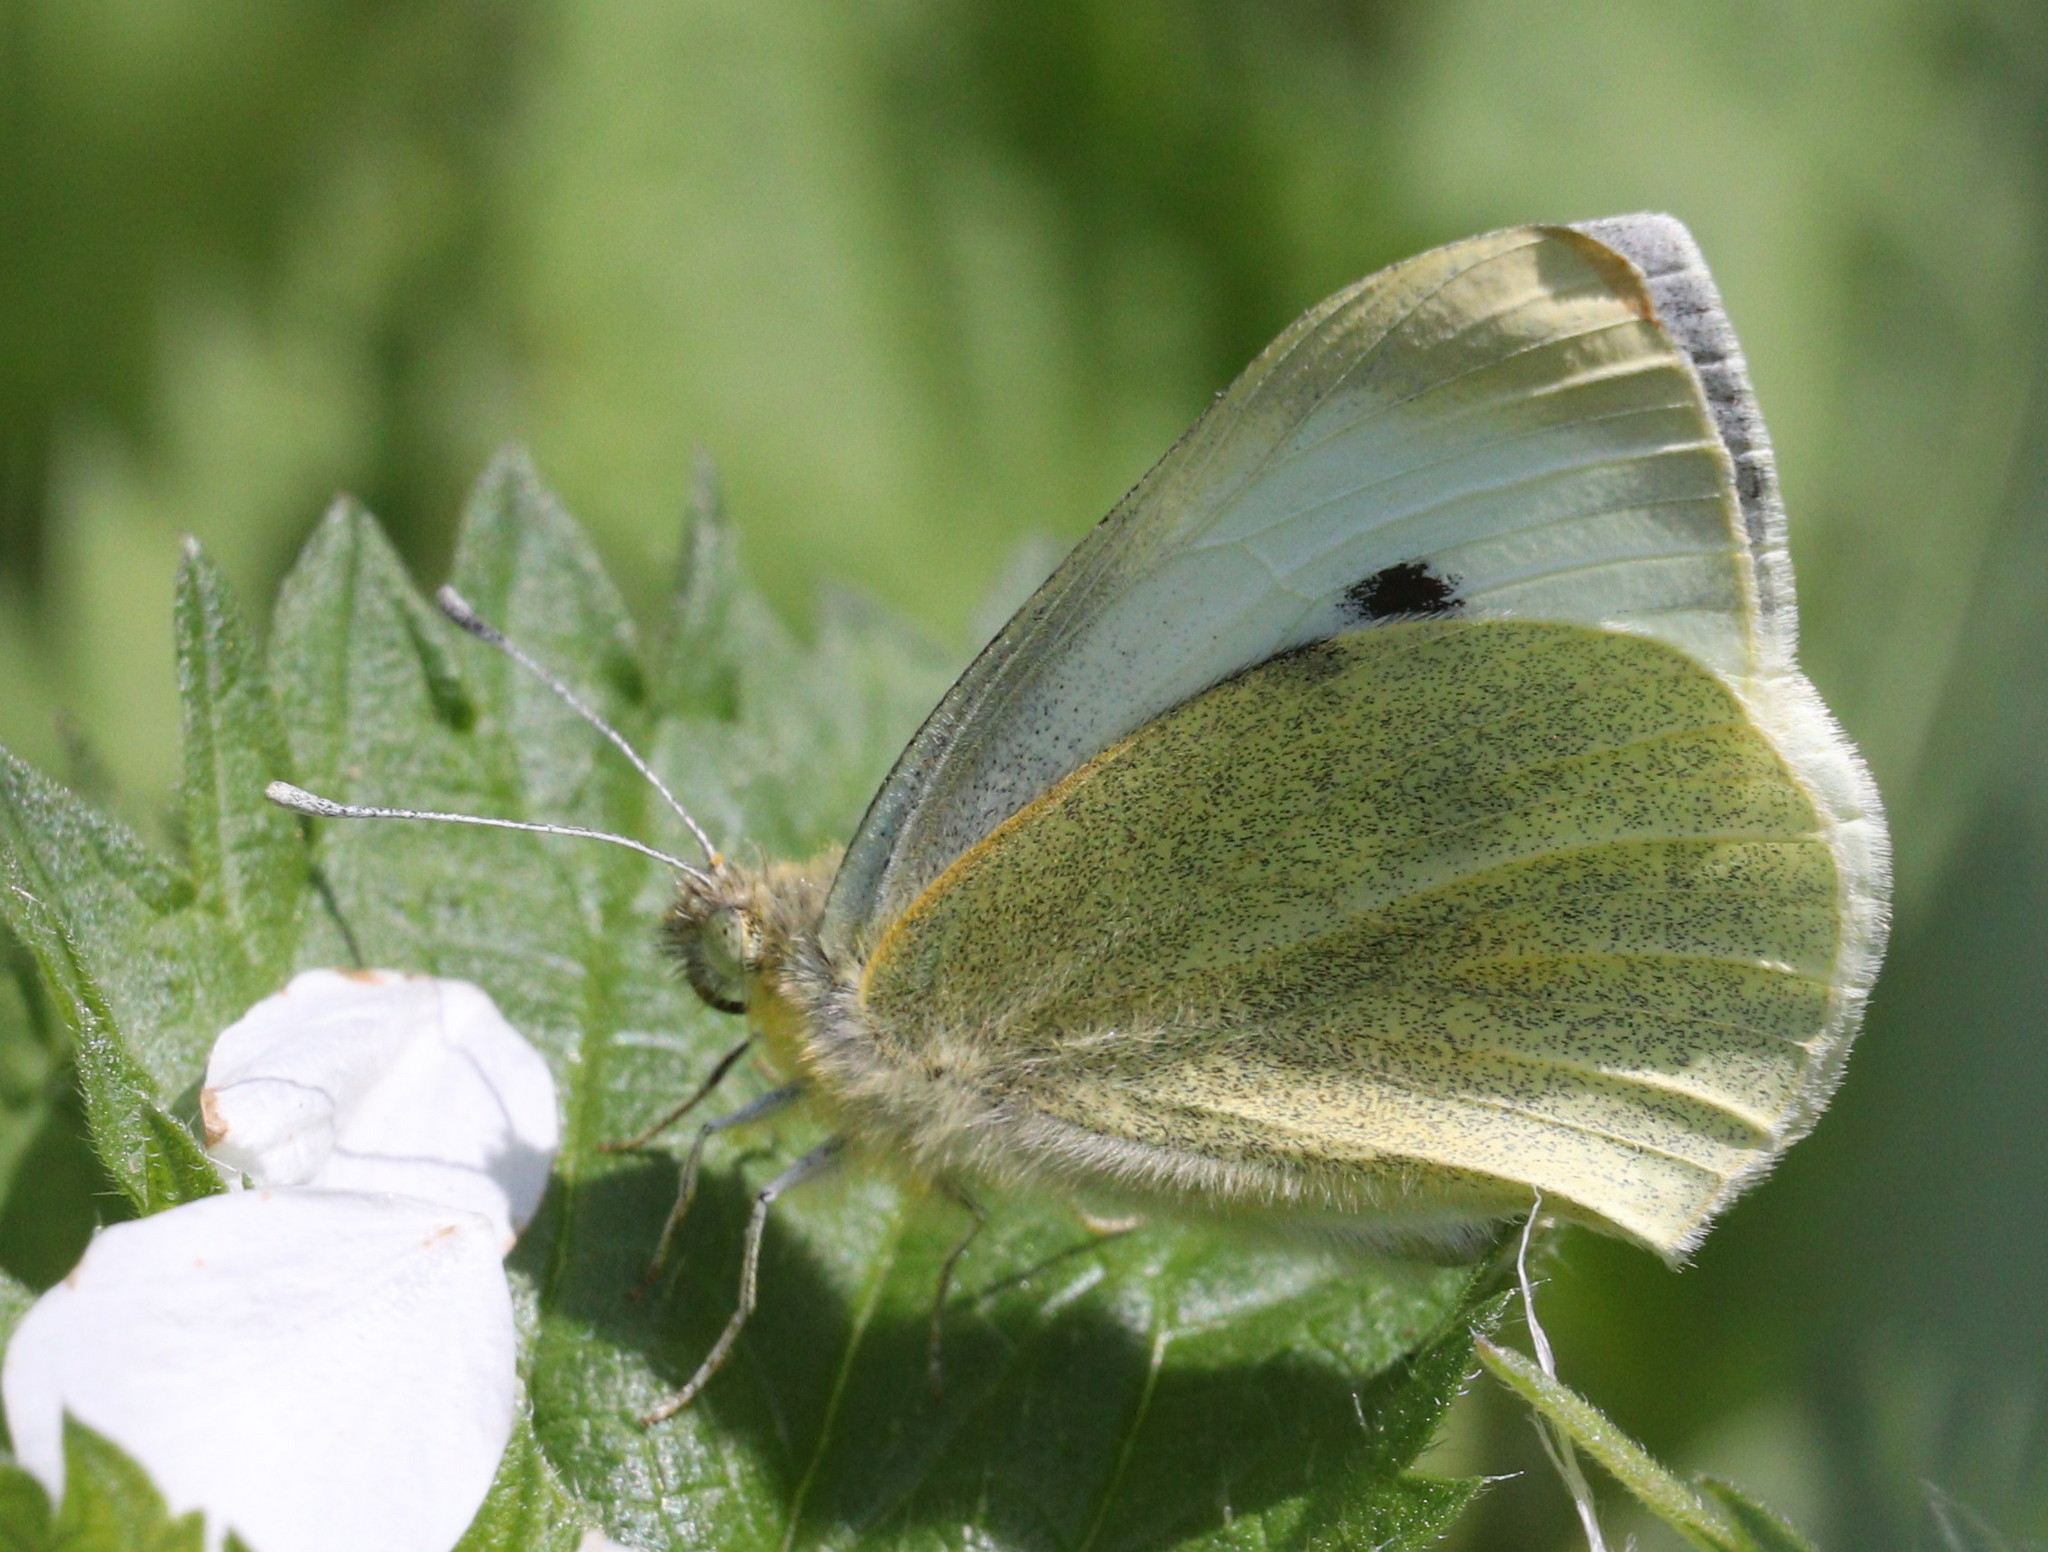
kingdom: Animalia
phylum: Arthropoda
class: Insecta
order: Lepidoptera
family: Pieridae
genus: Pieris
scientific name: Pieris brassicae
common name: Large white
